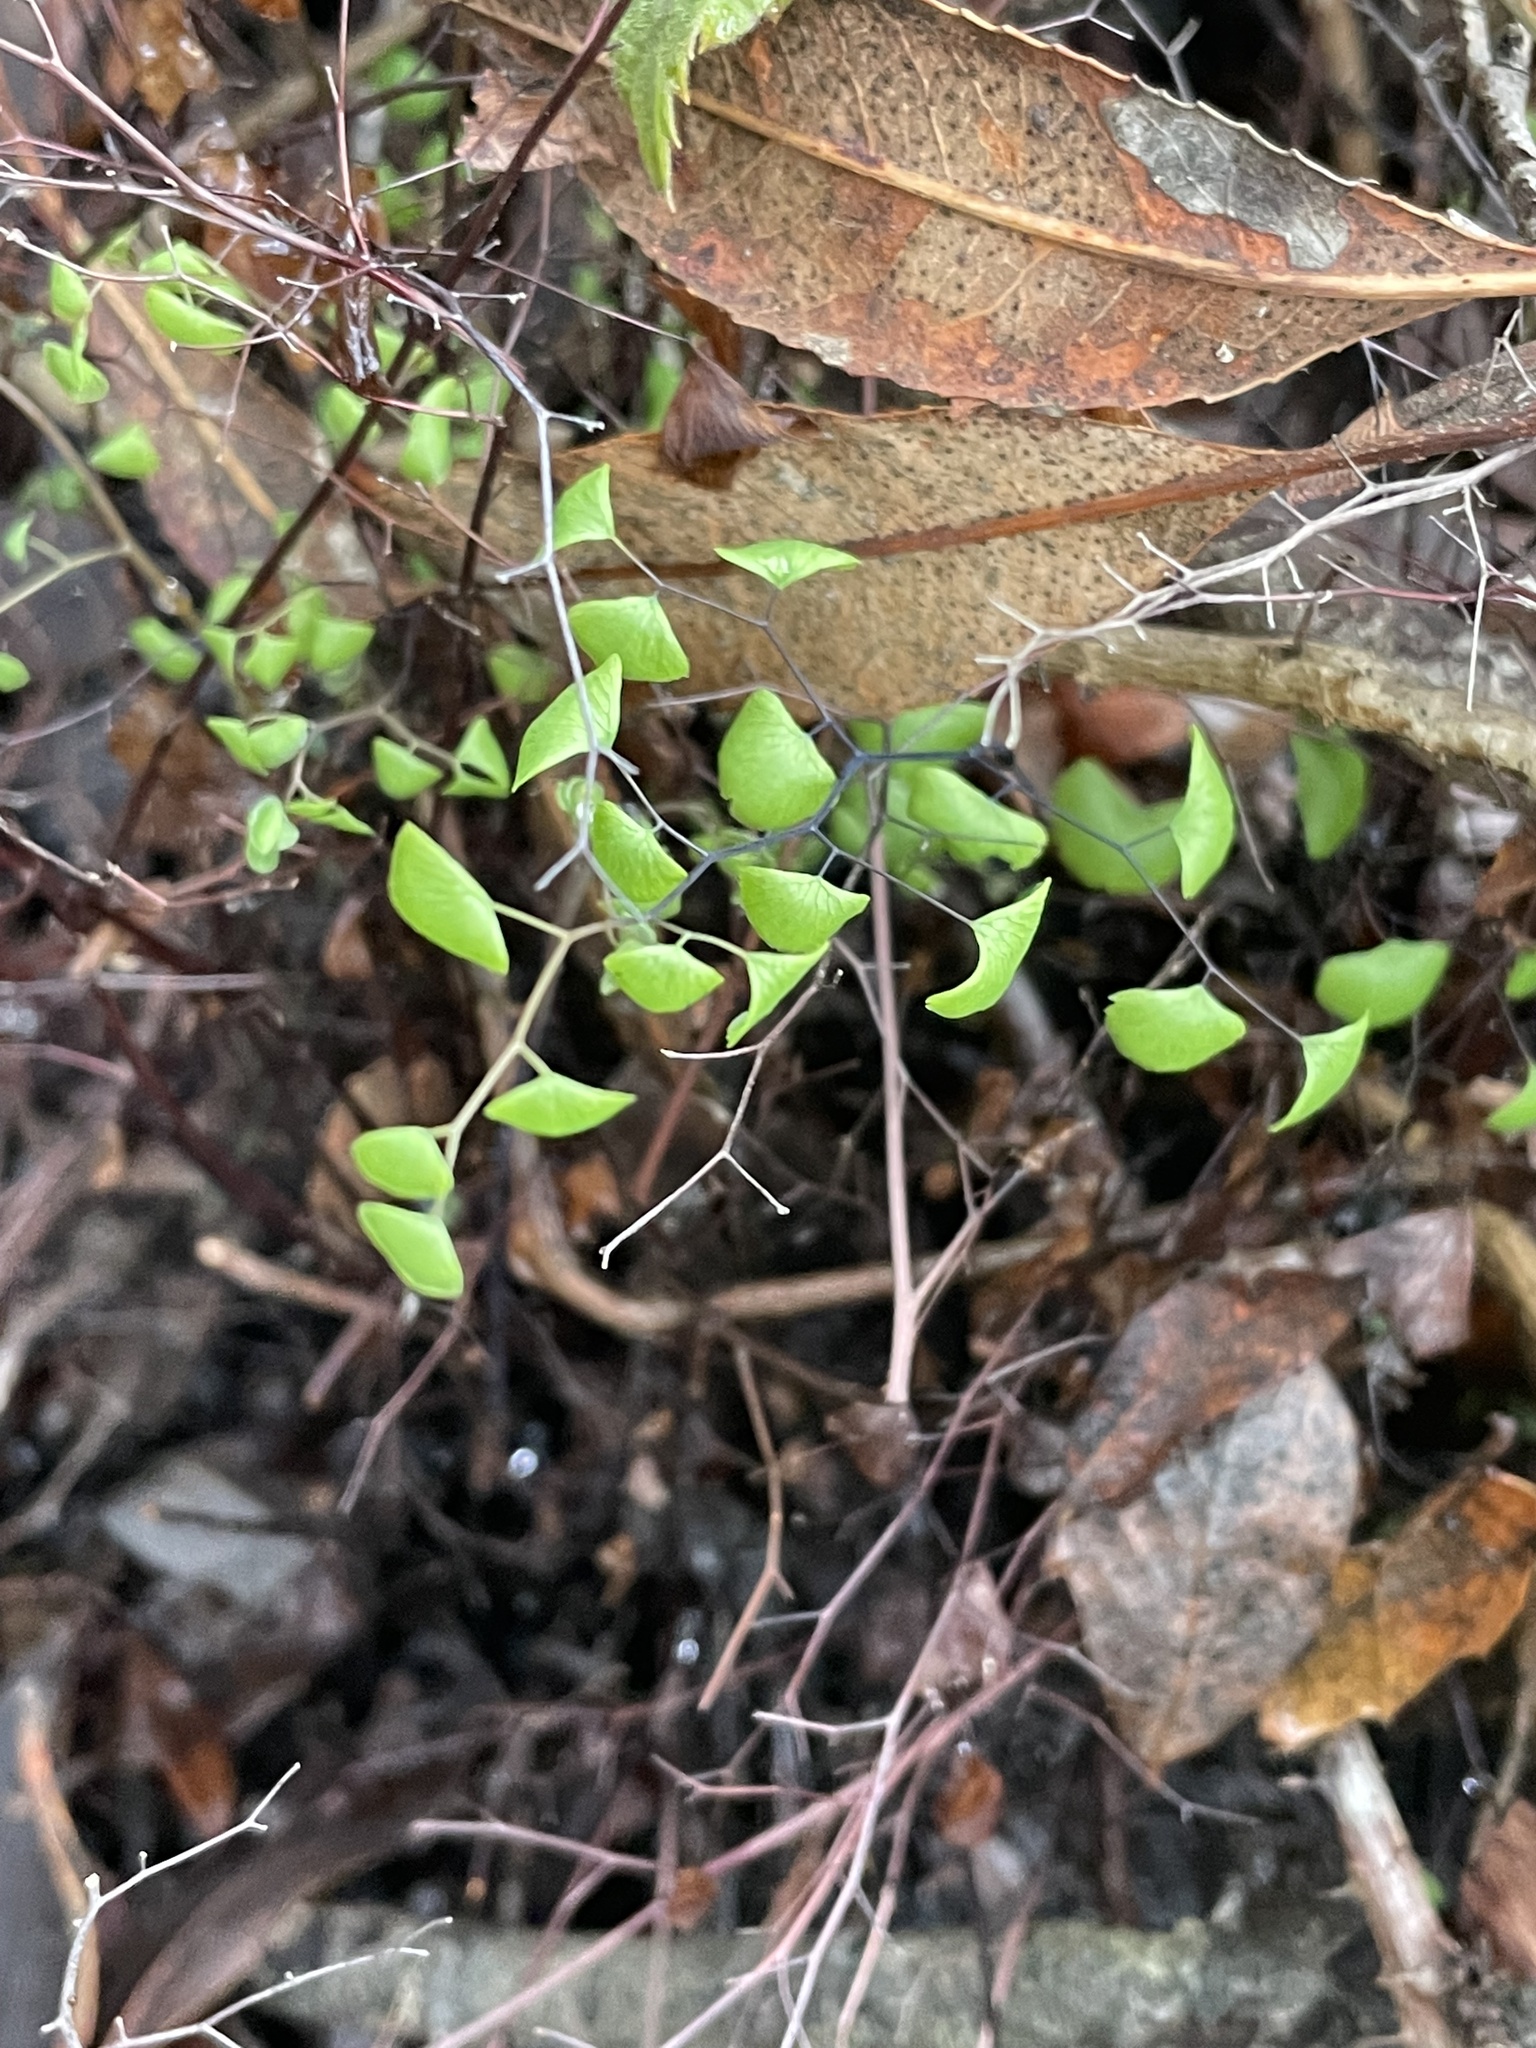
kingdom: Plantae
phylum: Tracheophyta
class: Polypodiopsida
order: Polypodiales
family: Pteridaceae
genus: Adiantum
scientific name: Adiantum jordanii
